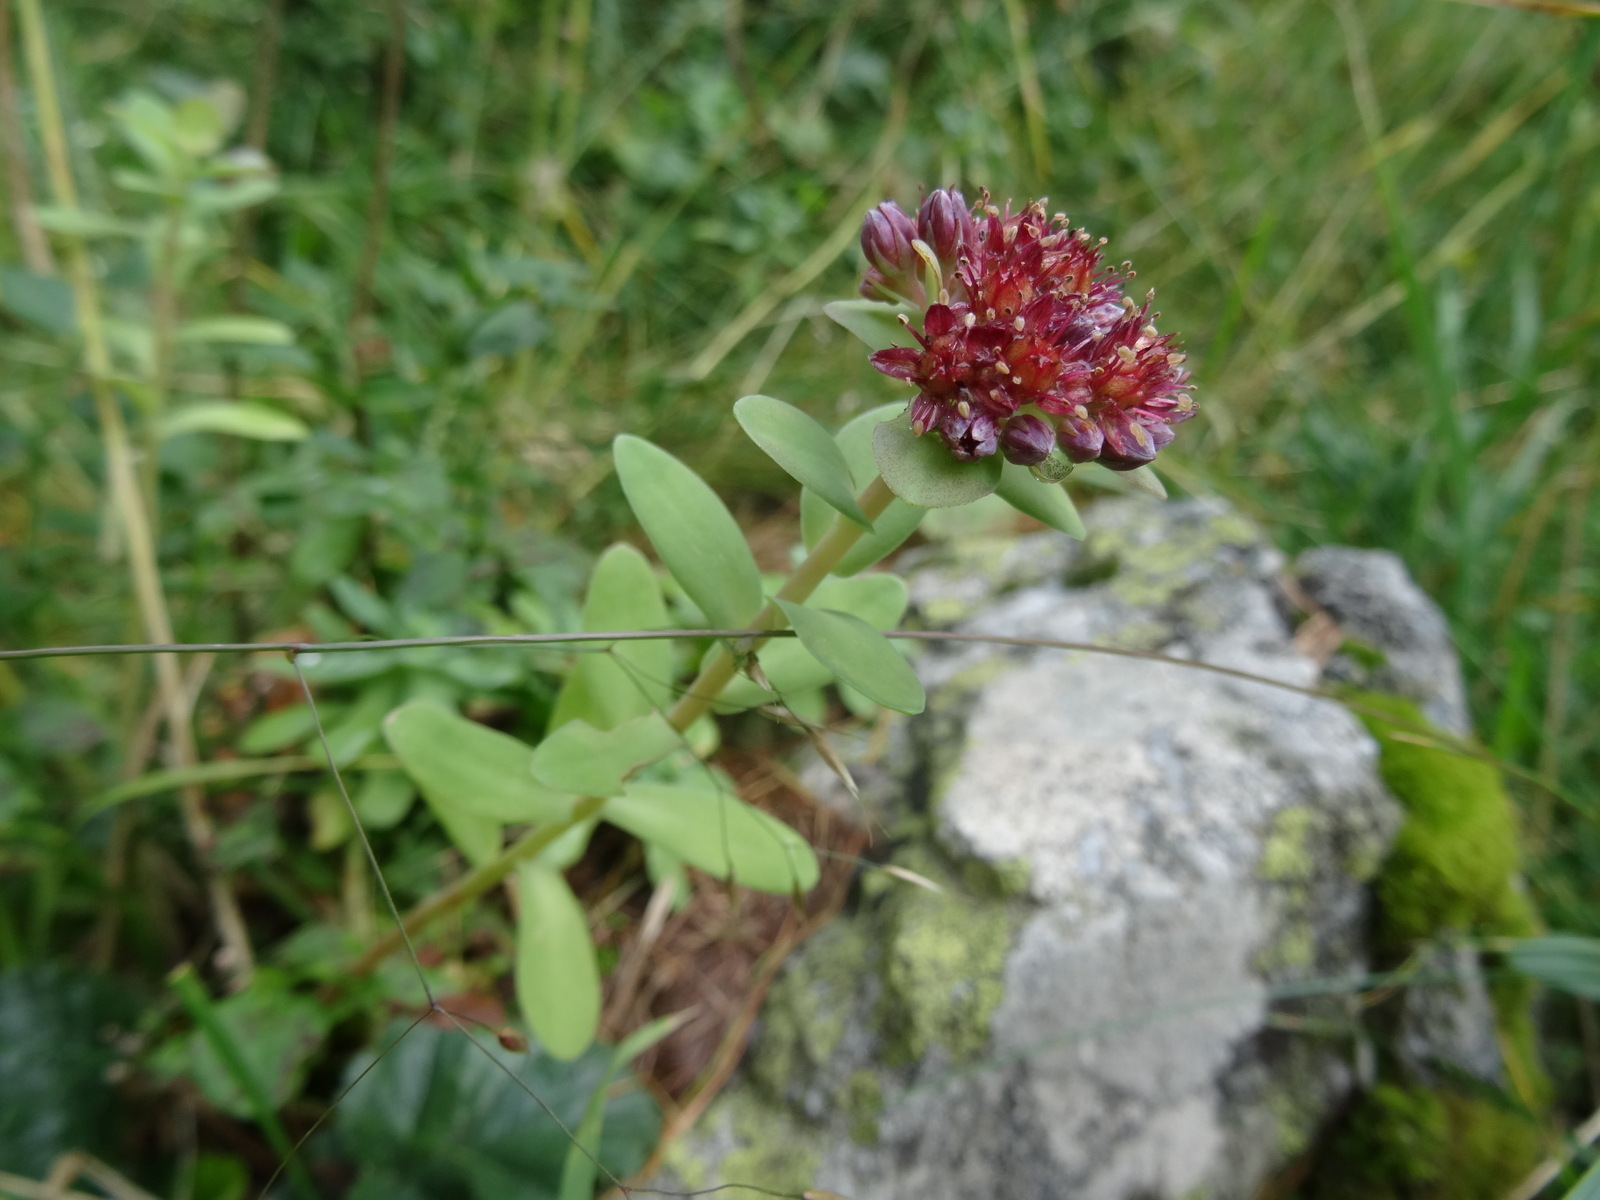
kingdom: Plantae
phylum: Tracheophyta
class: Magnoliopsida
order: Saxifragales
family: Crassulaceae
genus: Hylotelephium
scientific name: Hylotelephium anacampseros
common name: Love-restorer
